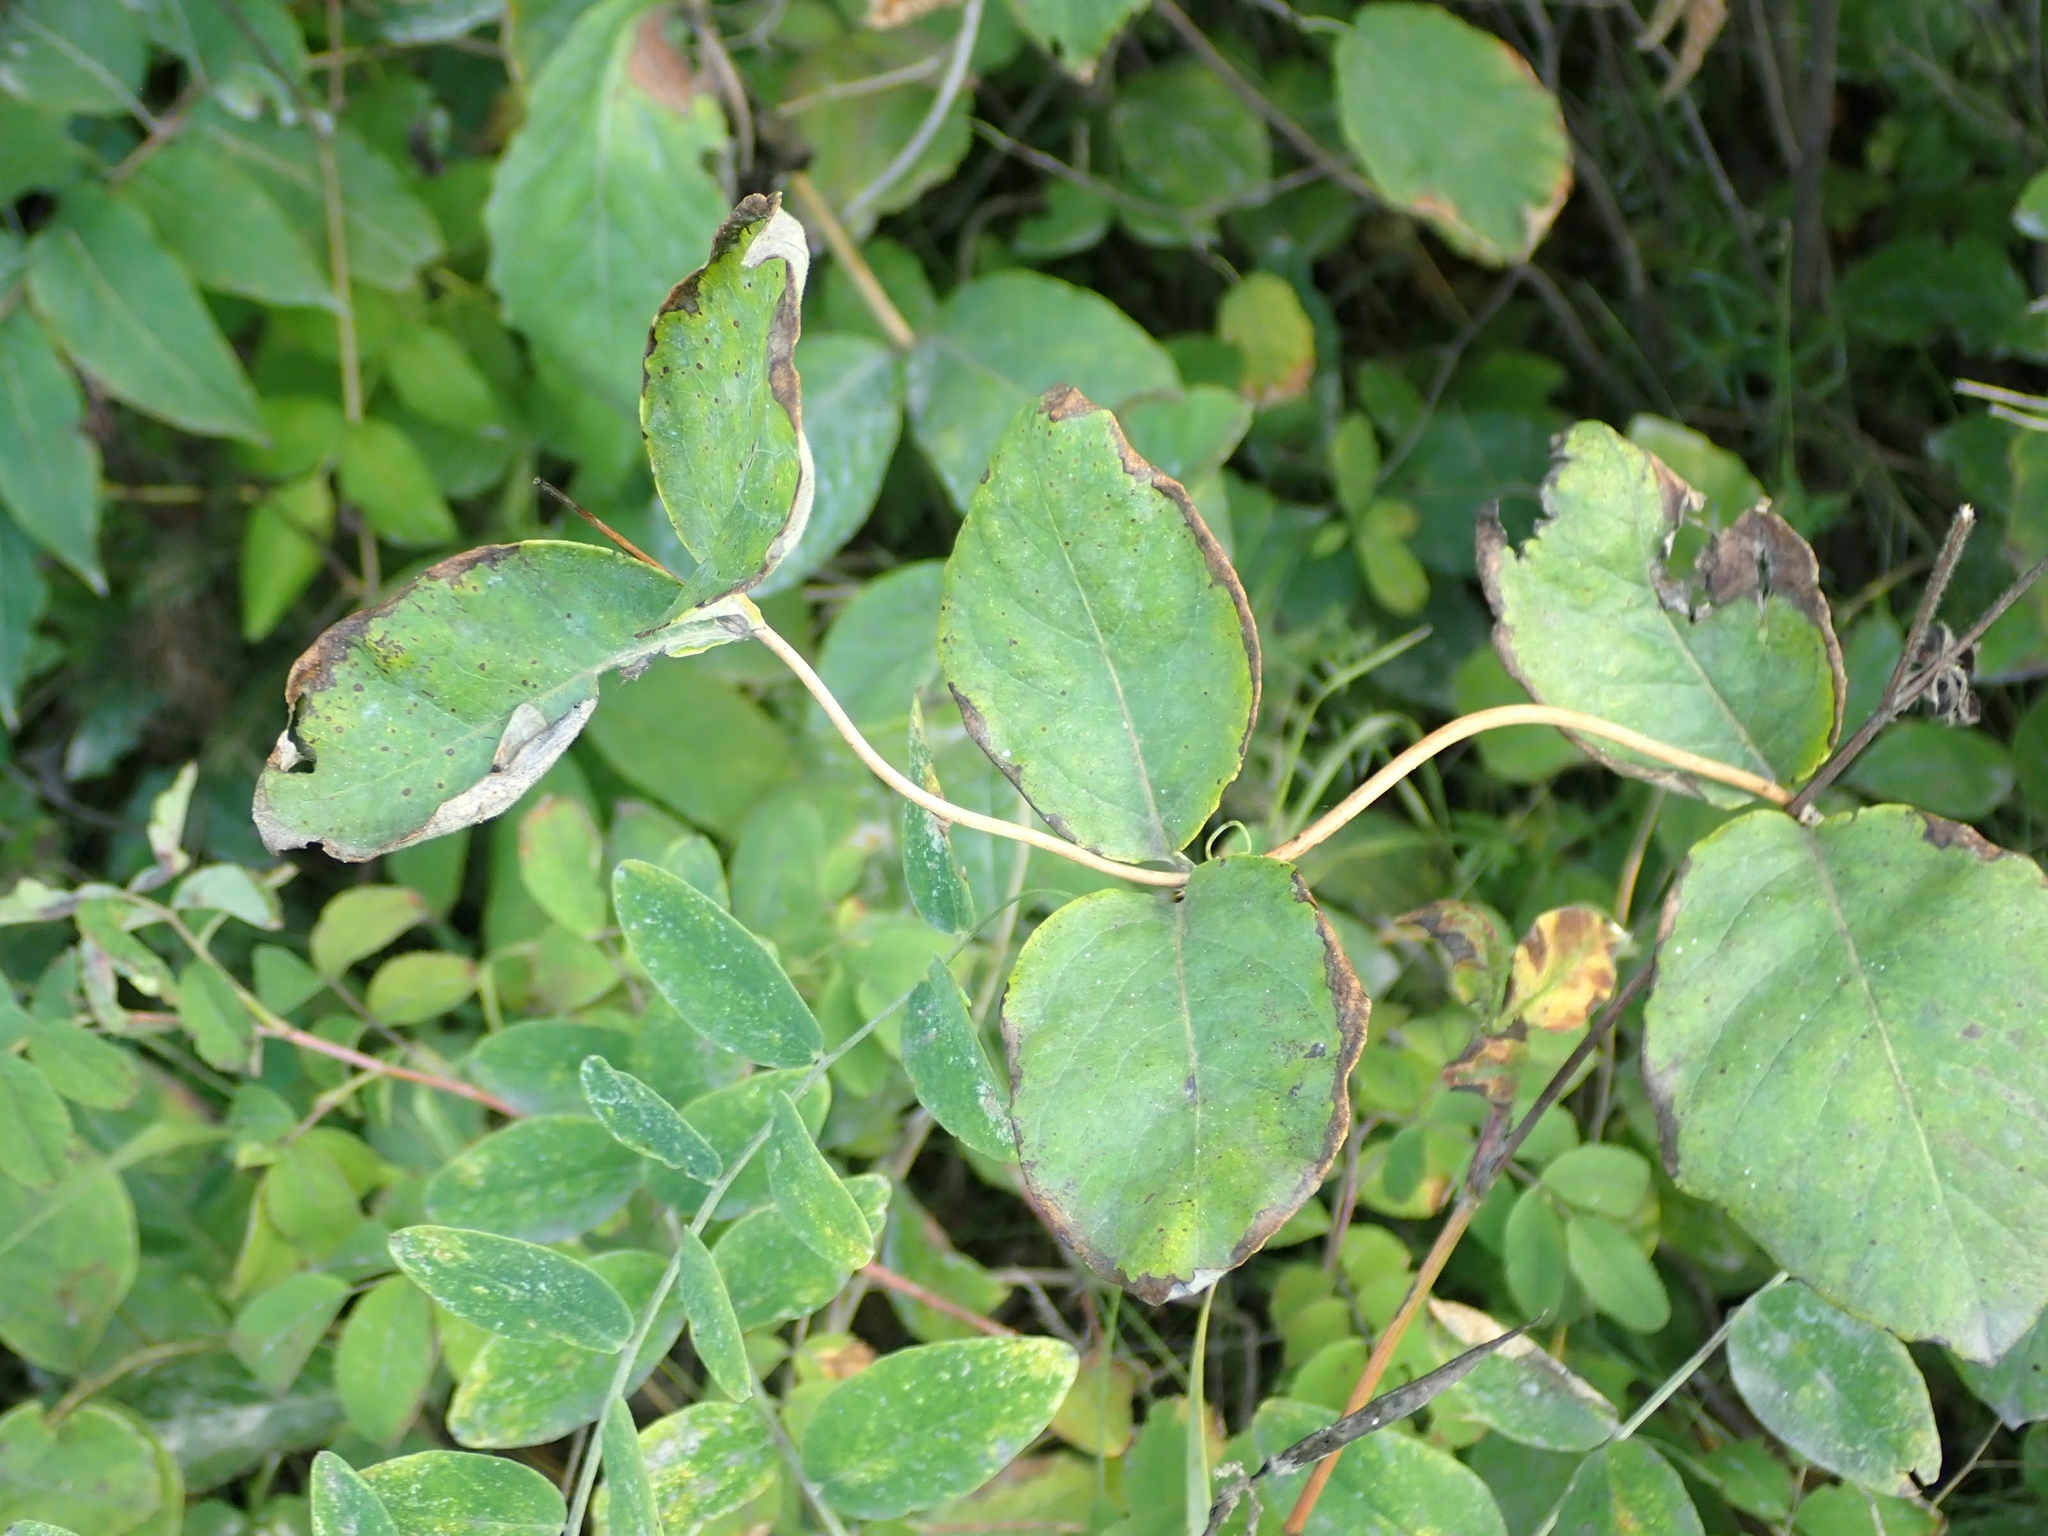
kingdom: Plantae
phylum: Tracheophyta
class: Magnoliopsida
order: Dipsacales
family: Caprifoliaceae
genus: Lonicera
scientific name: Lonicera dioica
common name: Limber honeysuckle
